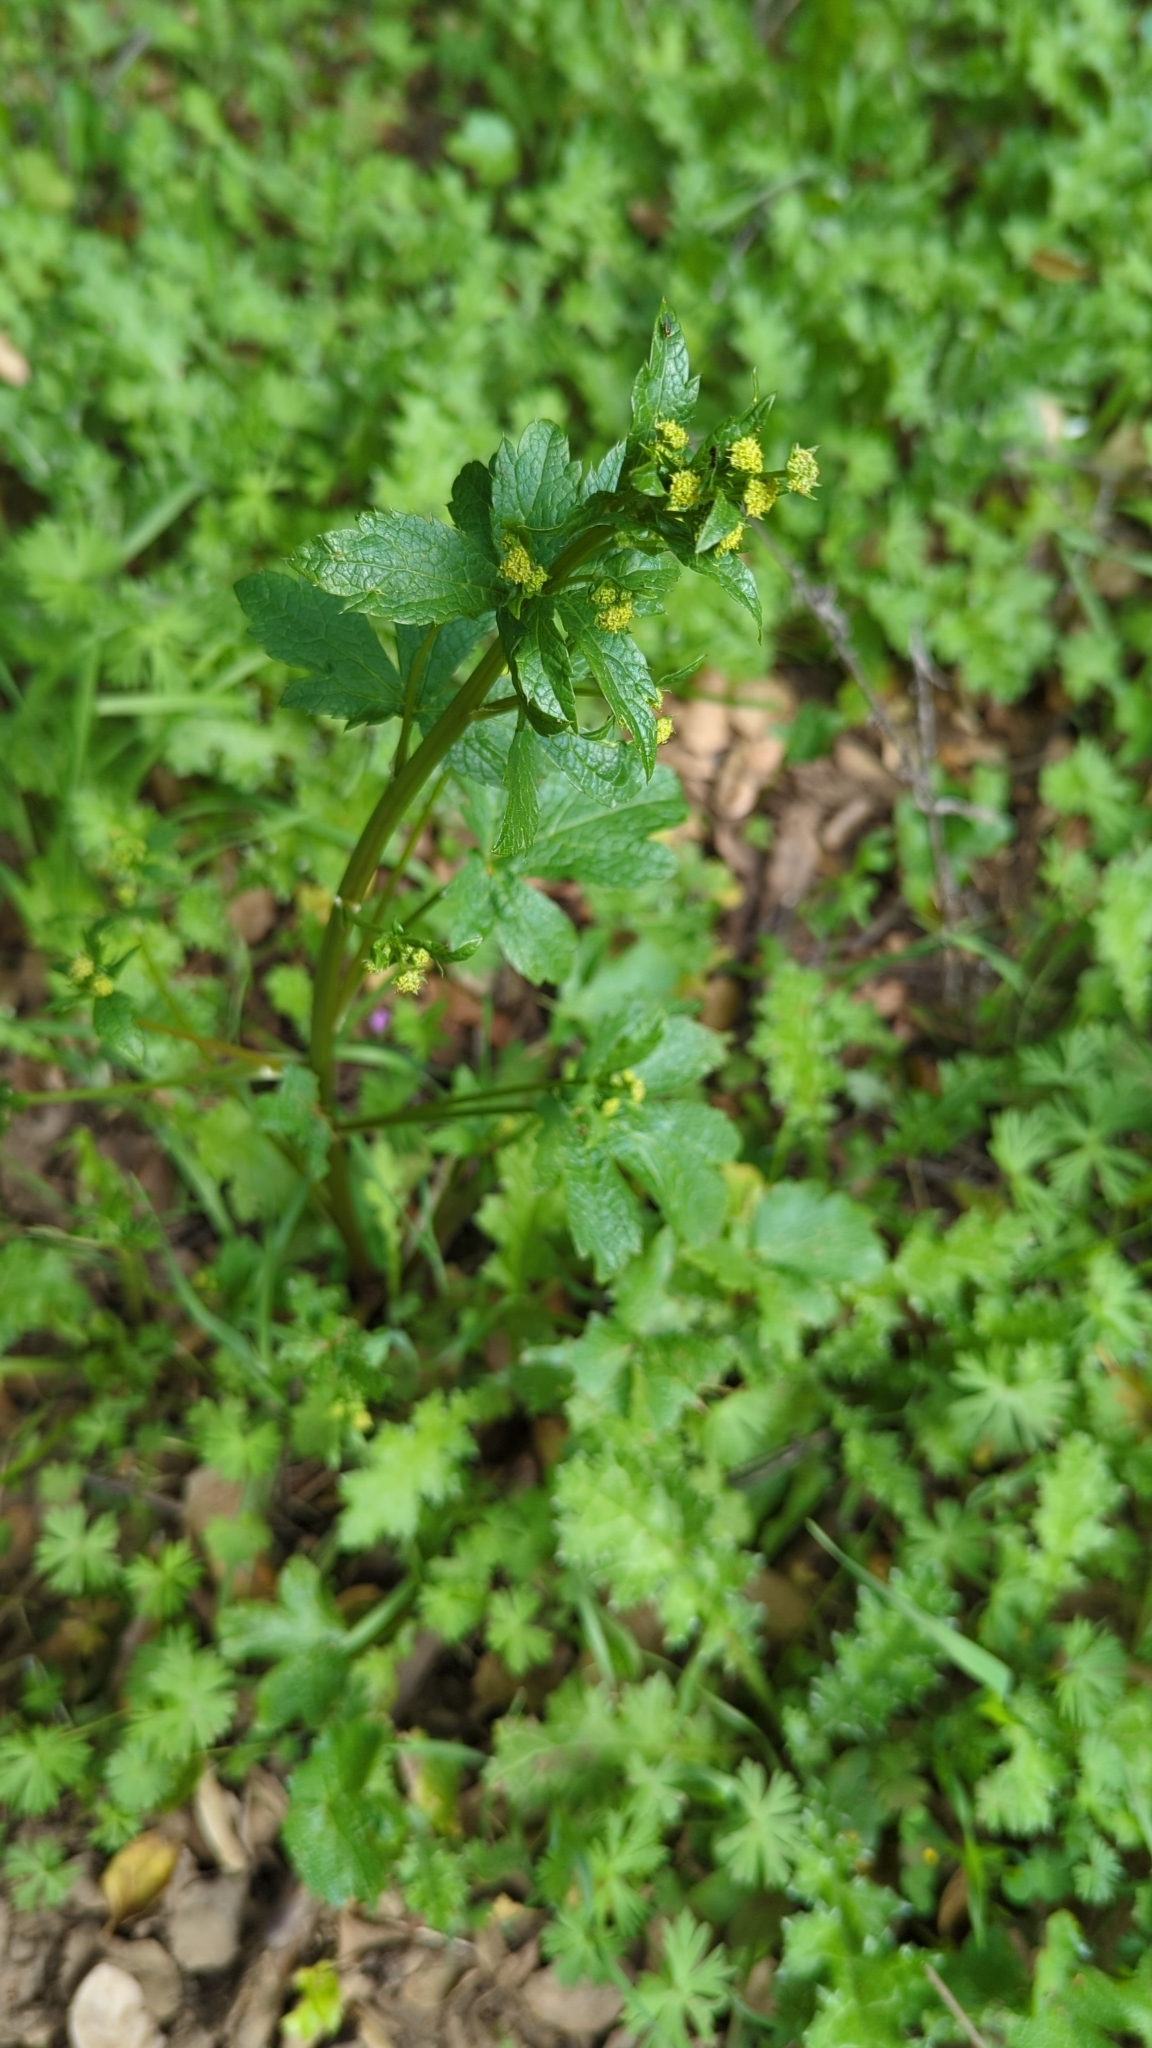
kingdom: Plantae
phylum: Tracheophyta
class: Magnoliopsida
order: Apiales
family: Apiaceae
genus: Sanicula
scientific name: Sanicula crassicaulis
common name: Western snakeroot
